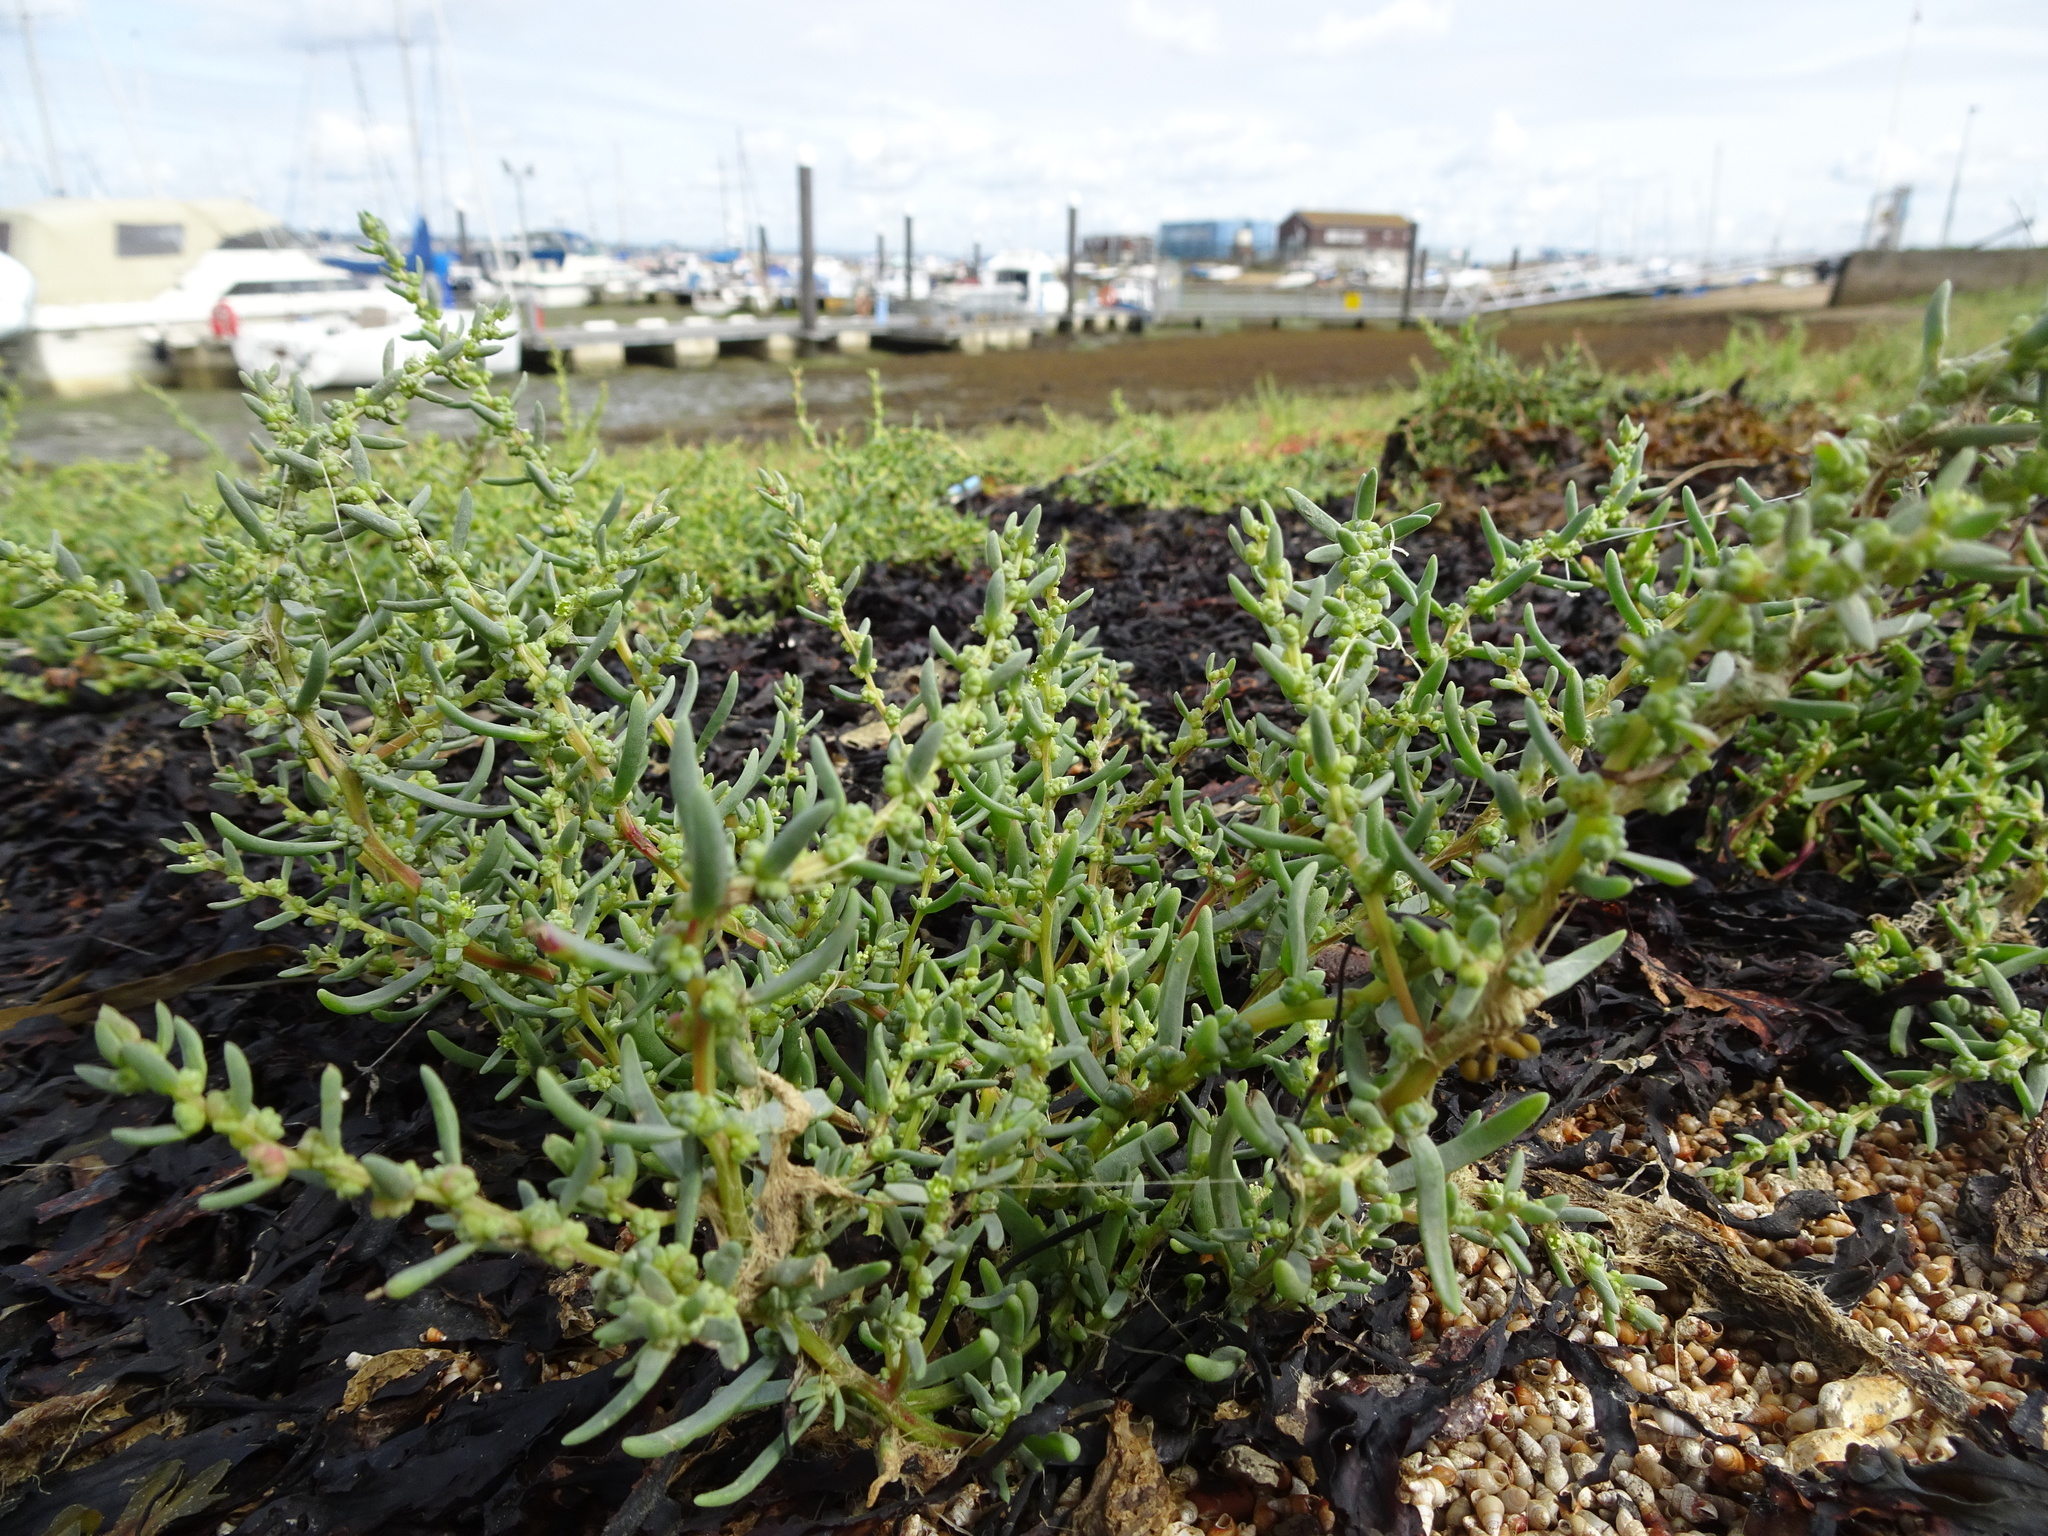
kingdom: Plantae
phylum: Tracheophyta
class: Magnoliopsida
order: Caryophyllales
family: Amaranthaceae
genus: Suaeda
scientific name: Suaeda maritima
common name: Annual sea-blite
